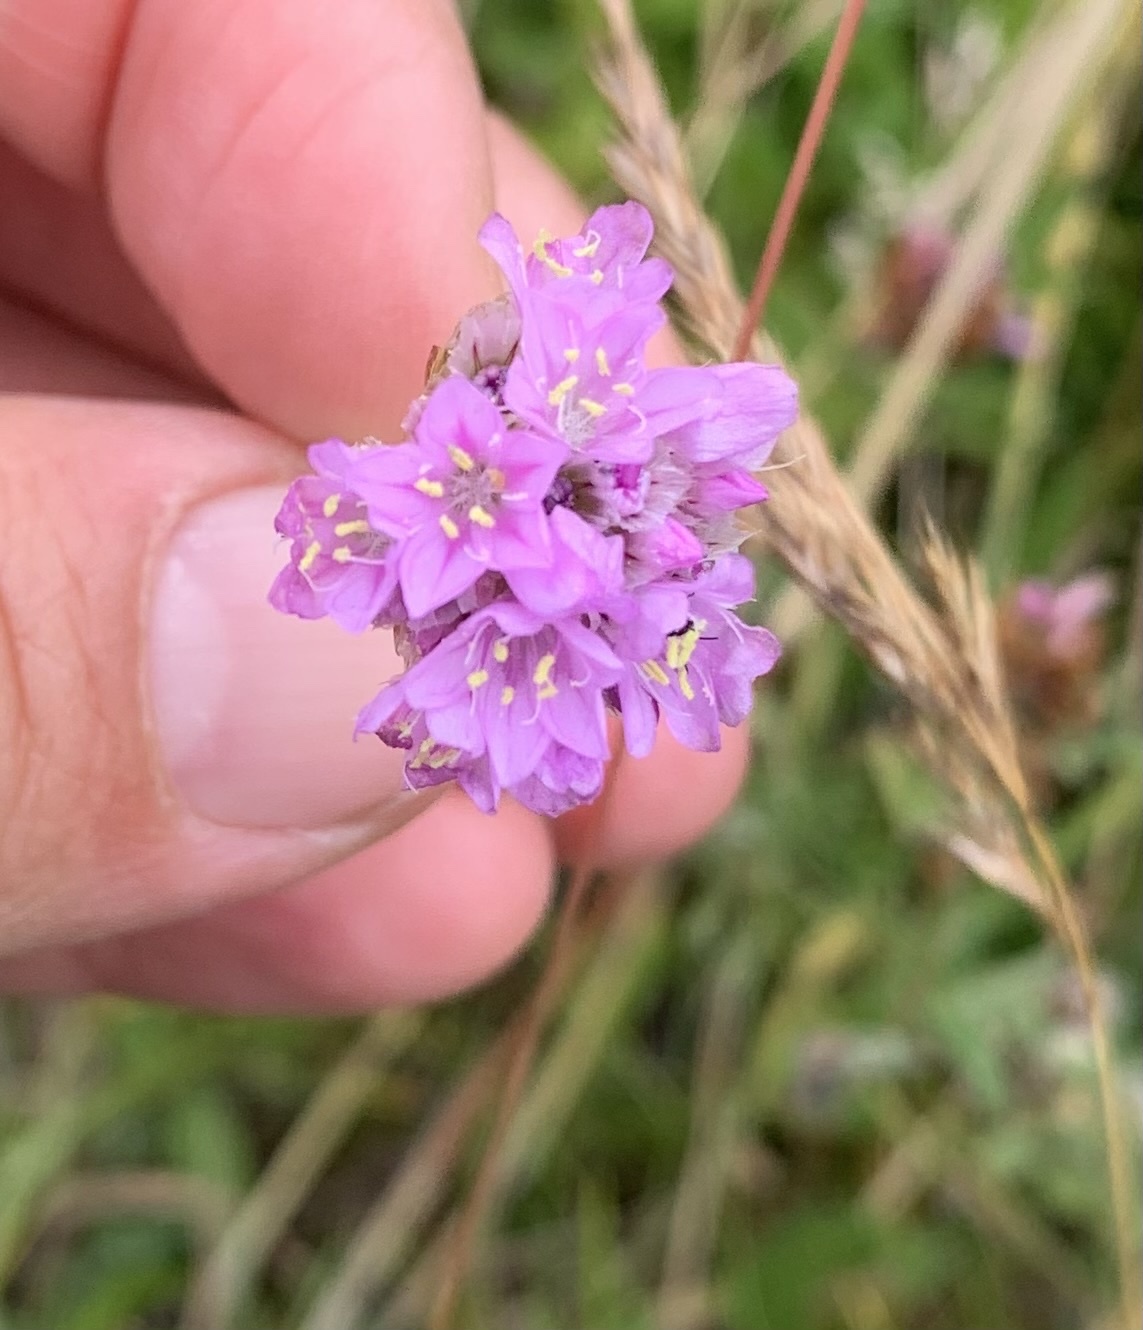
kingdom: Plantae
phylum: Tracheophyta
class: Magnoliopsida
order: Caryophyllales
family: Plumbaginaceae
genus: Armeria
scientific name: Armeria maritima
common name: Thrift
